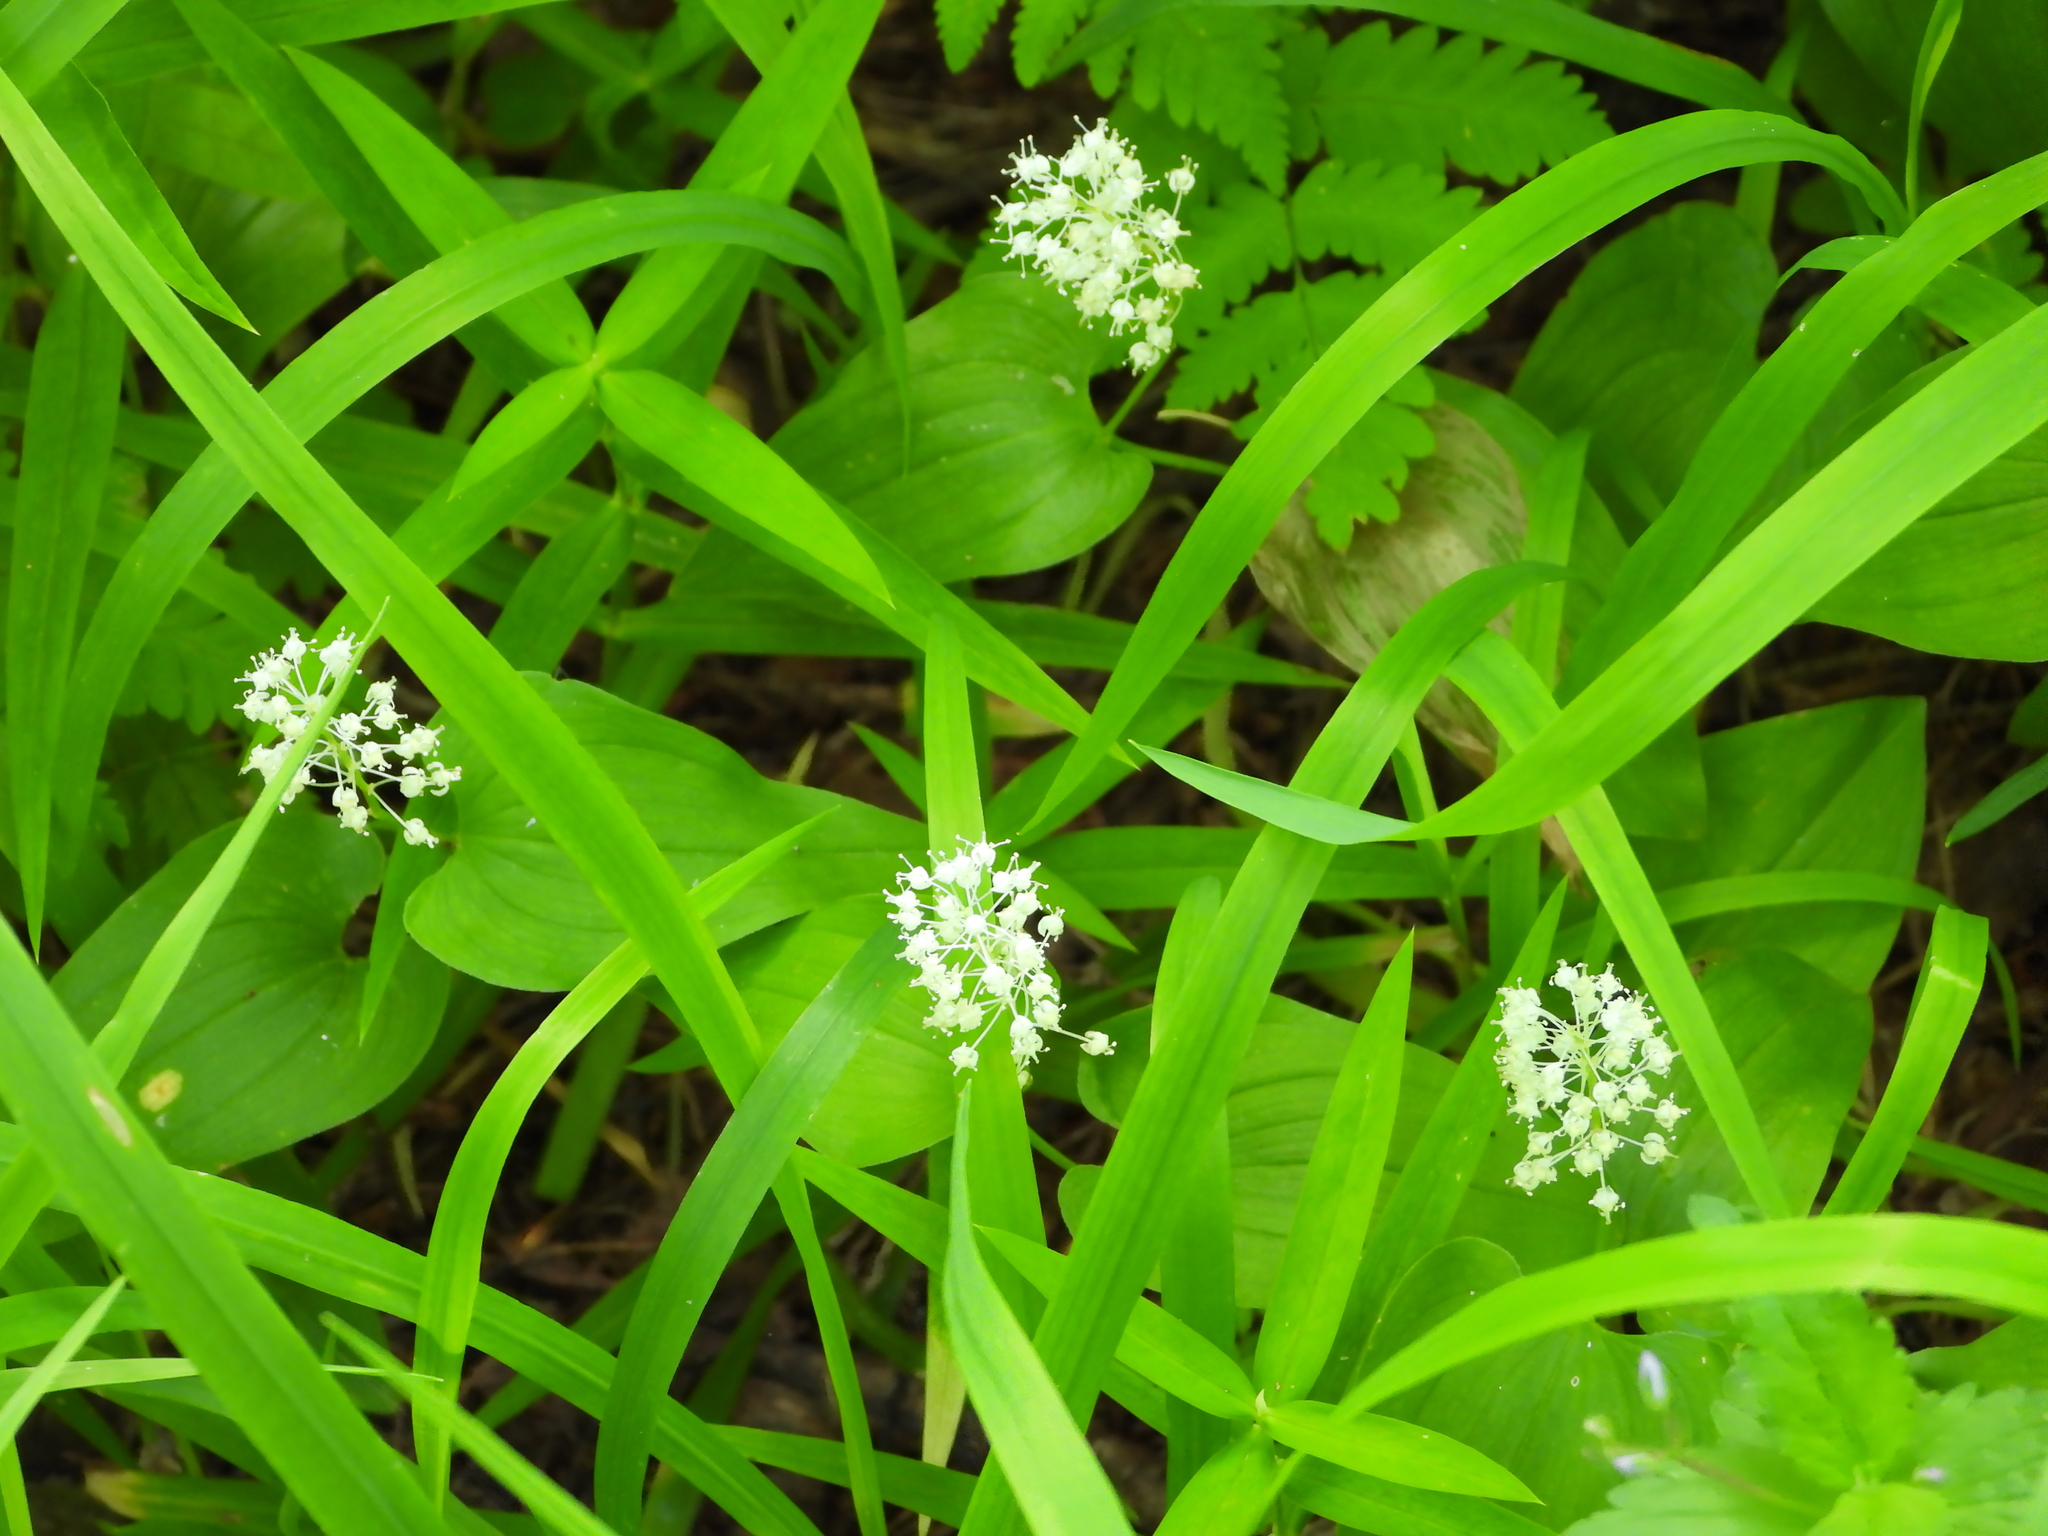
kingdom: Plantae
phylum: Tracheophyta
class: Liliopsida
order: Asparagales
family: Asparagaceae
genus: Maianthemum
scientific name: Maianthemum bifolium
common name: May lily
